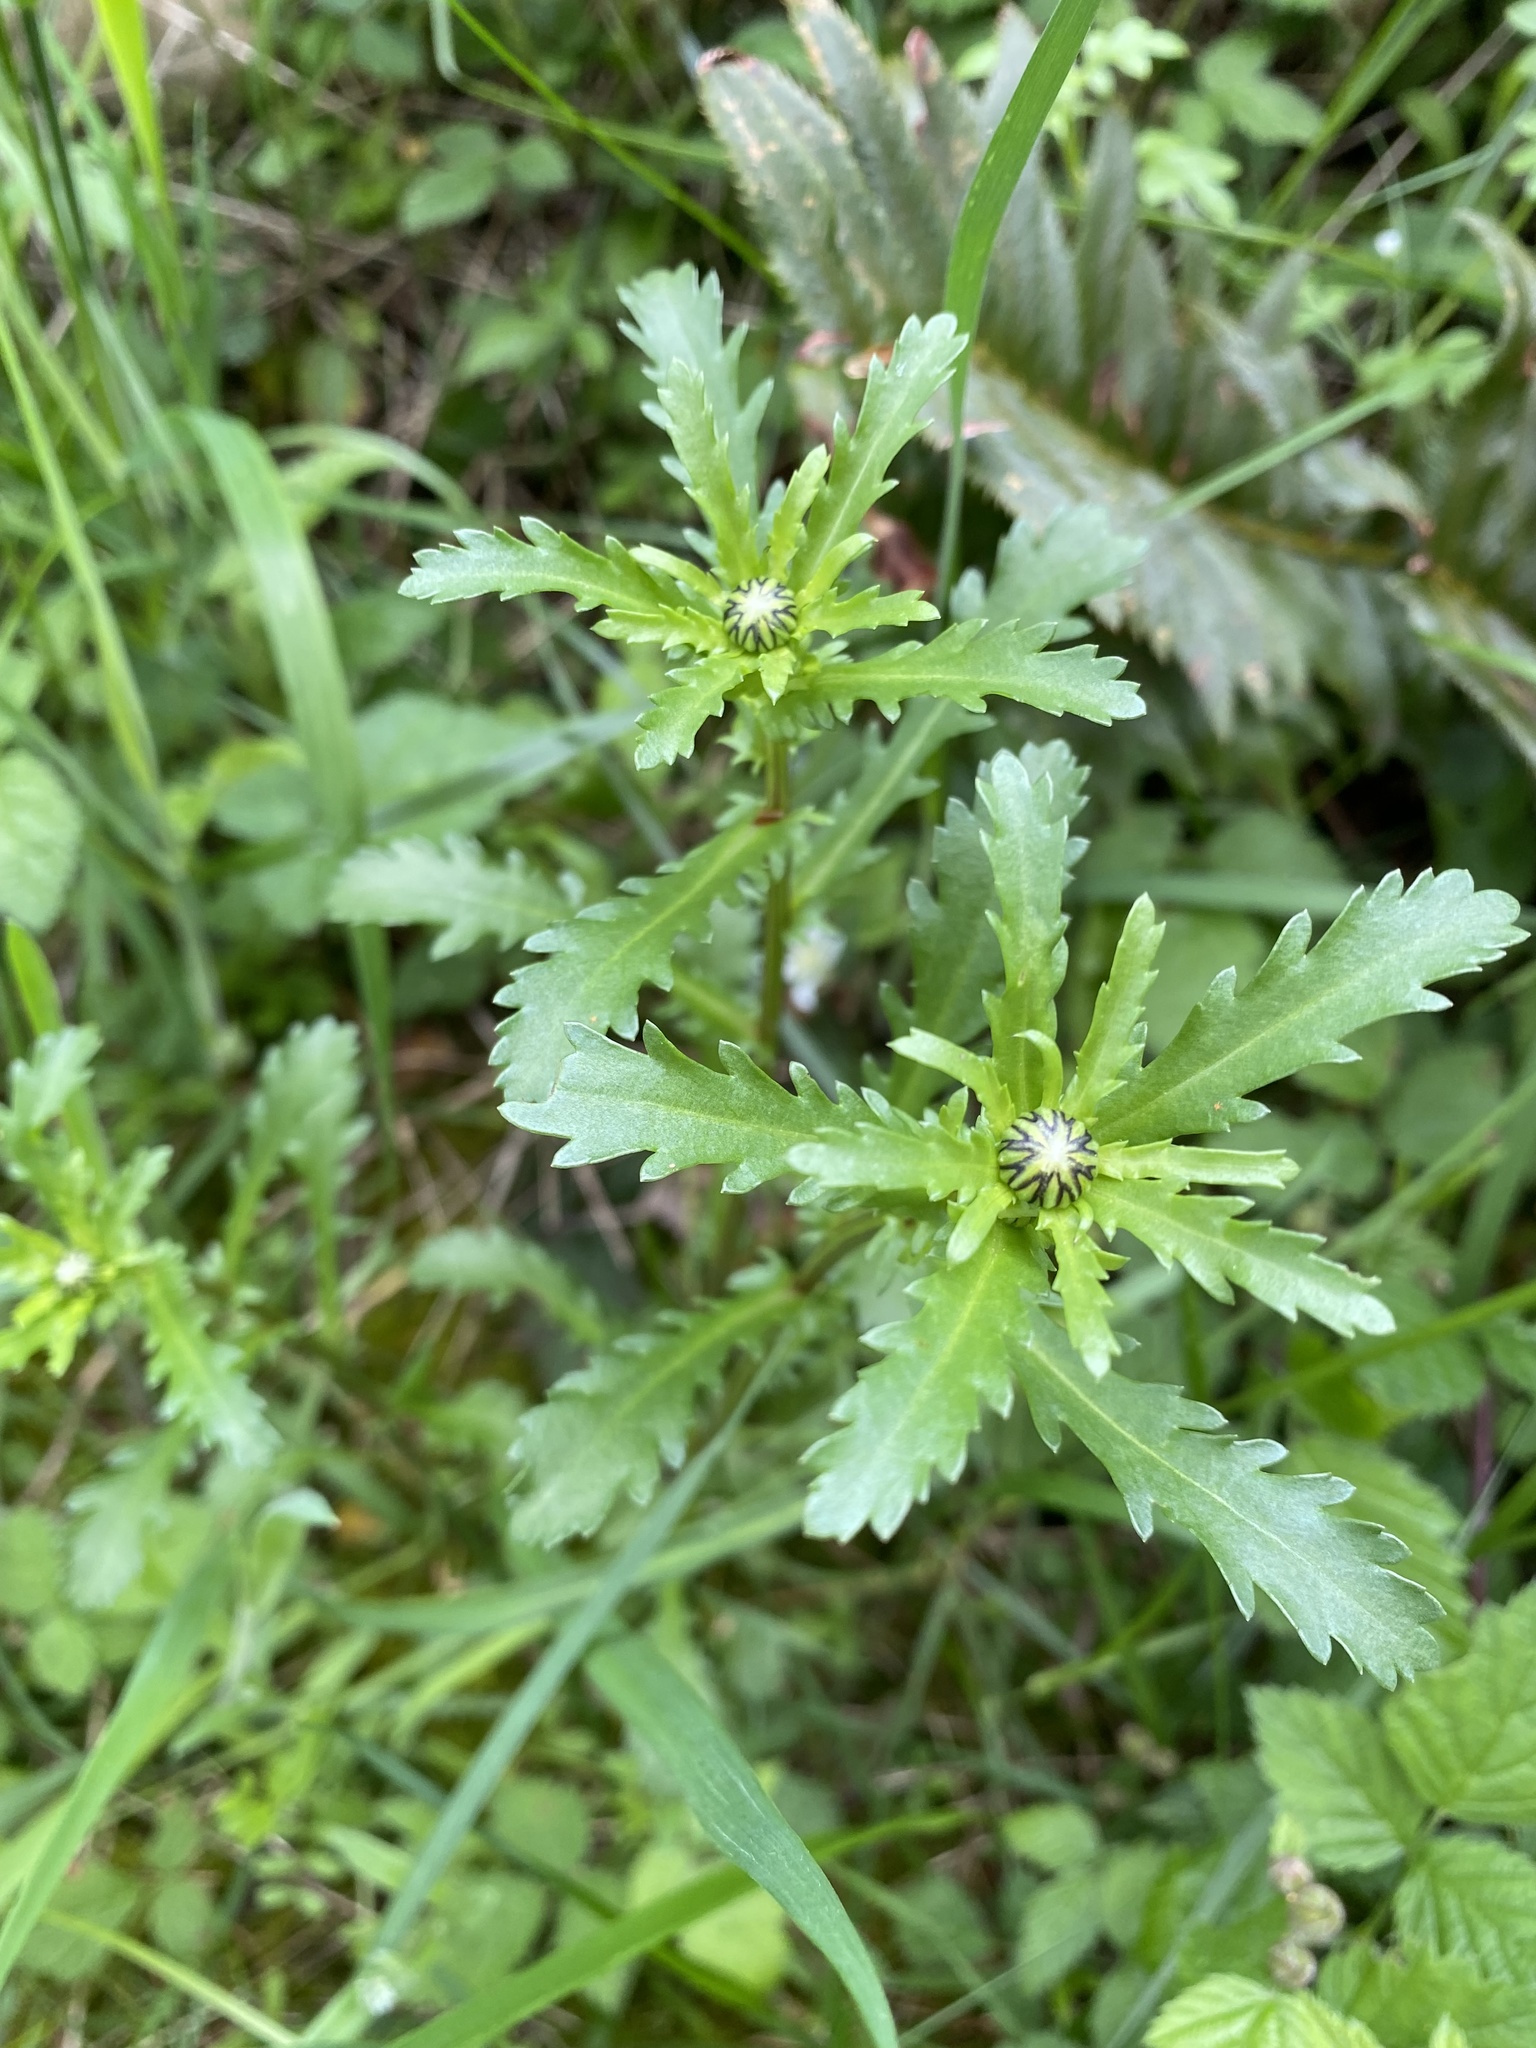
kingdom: Plantae
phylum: Tracheophyta
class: Magnoliopsida
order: Asterales
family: Asteraceae
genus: Leucanthemum
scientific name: Leucanthemum vulgare
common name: Oxeye daisy
